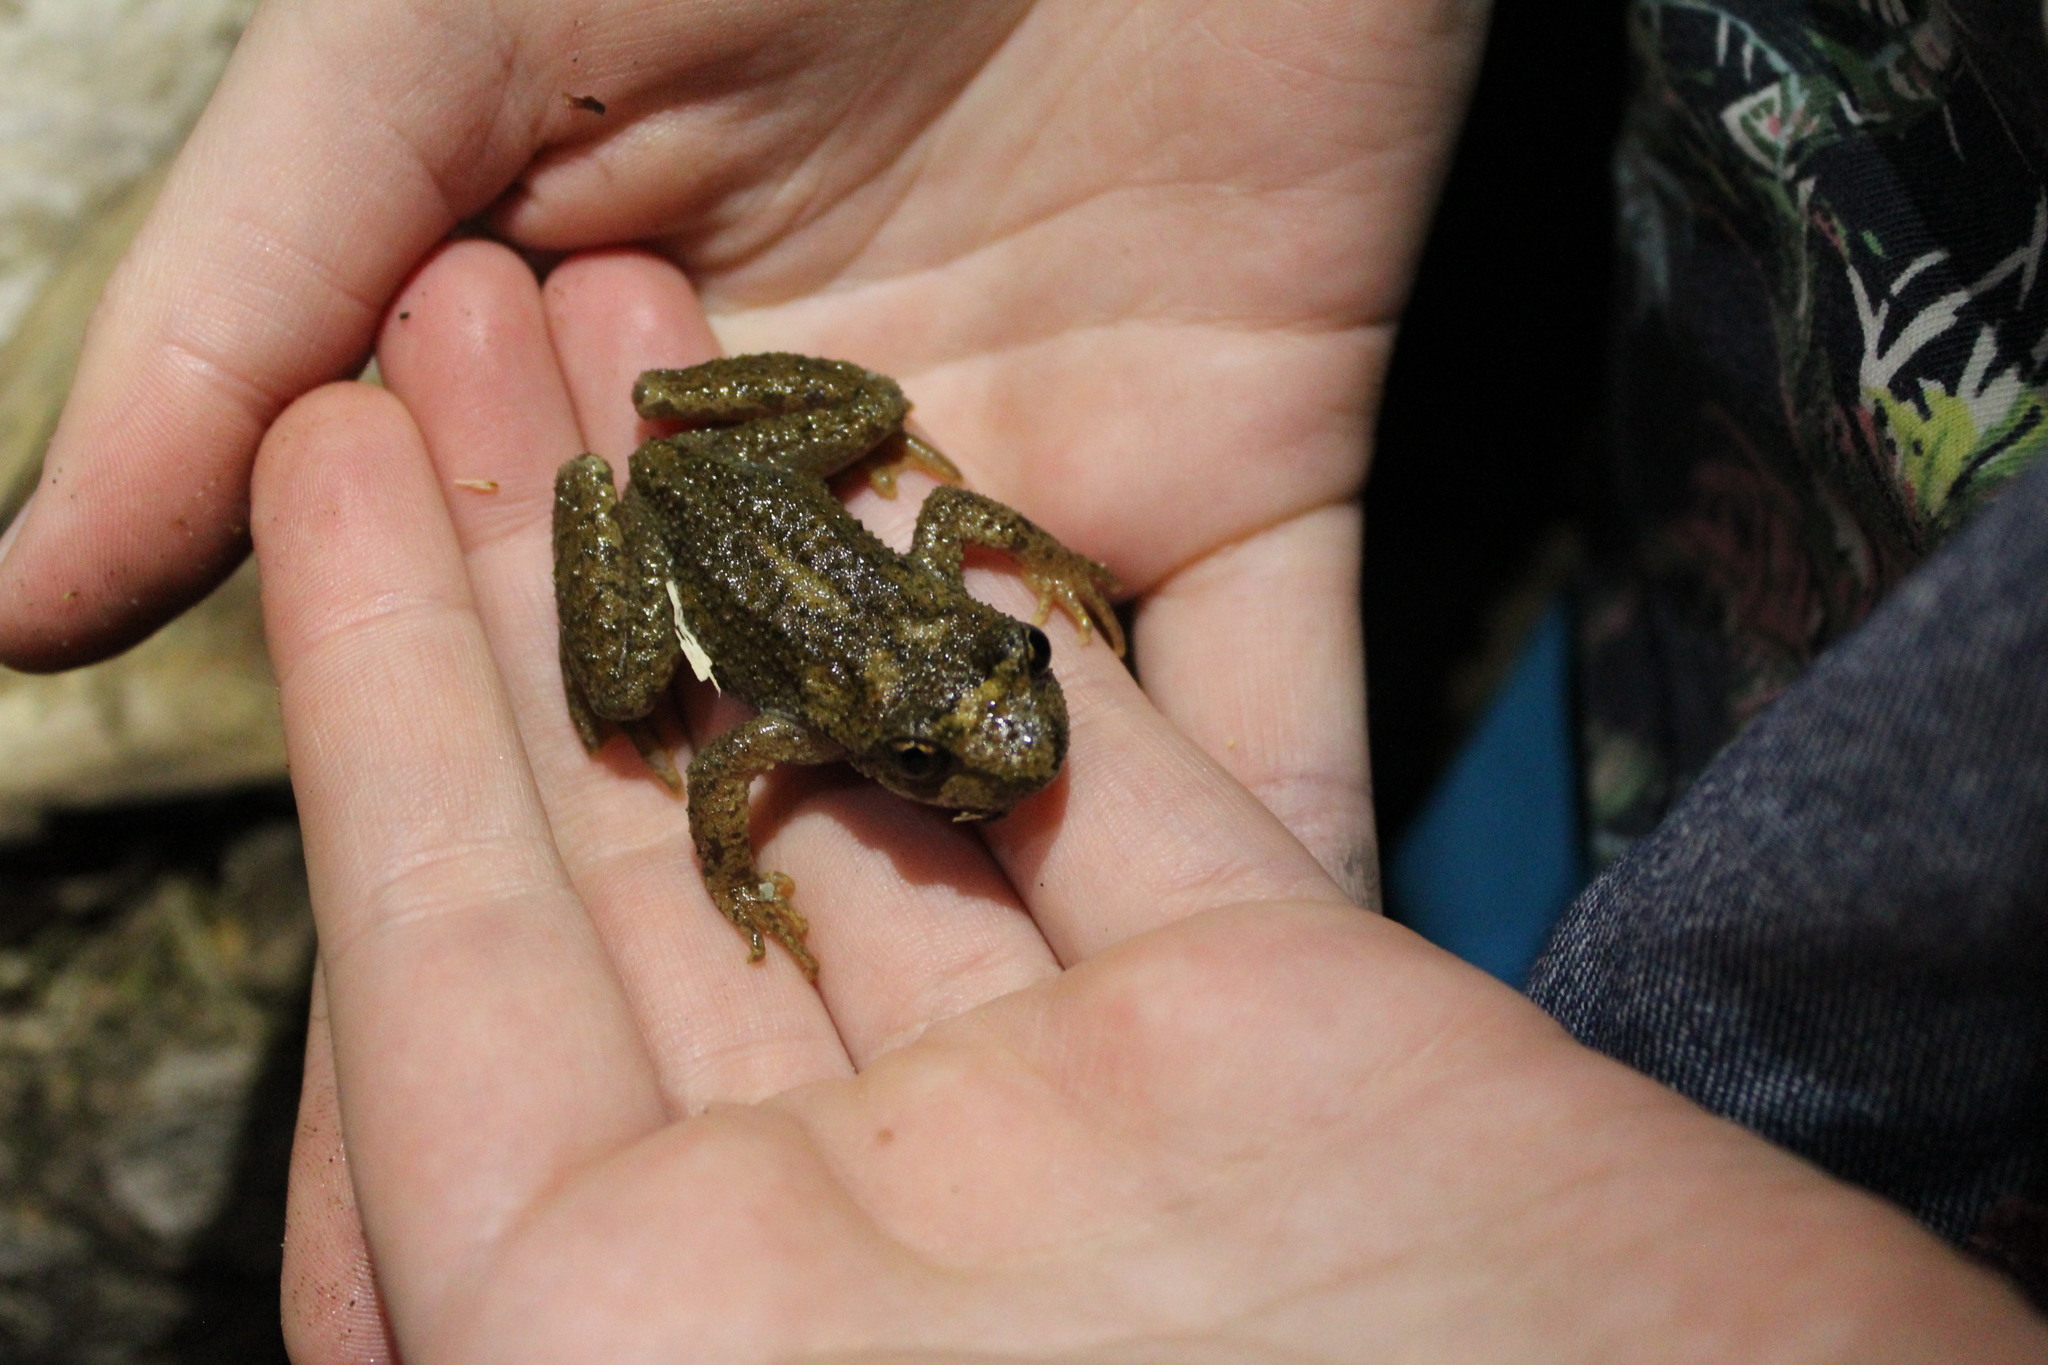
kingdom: Animalia
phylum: Chordata
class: Amphibia
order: Anura
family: Ascaphidae
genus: Ascaphus
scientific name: Ascaphus montanus
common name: Rocky mountain tailed frog
